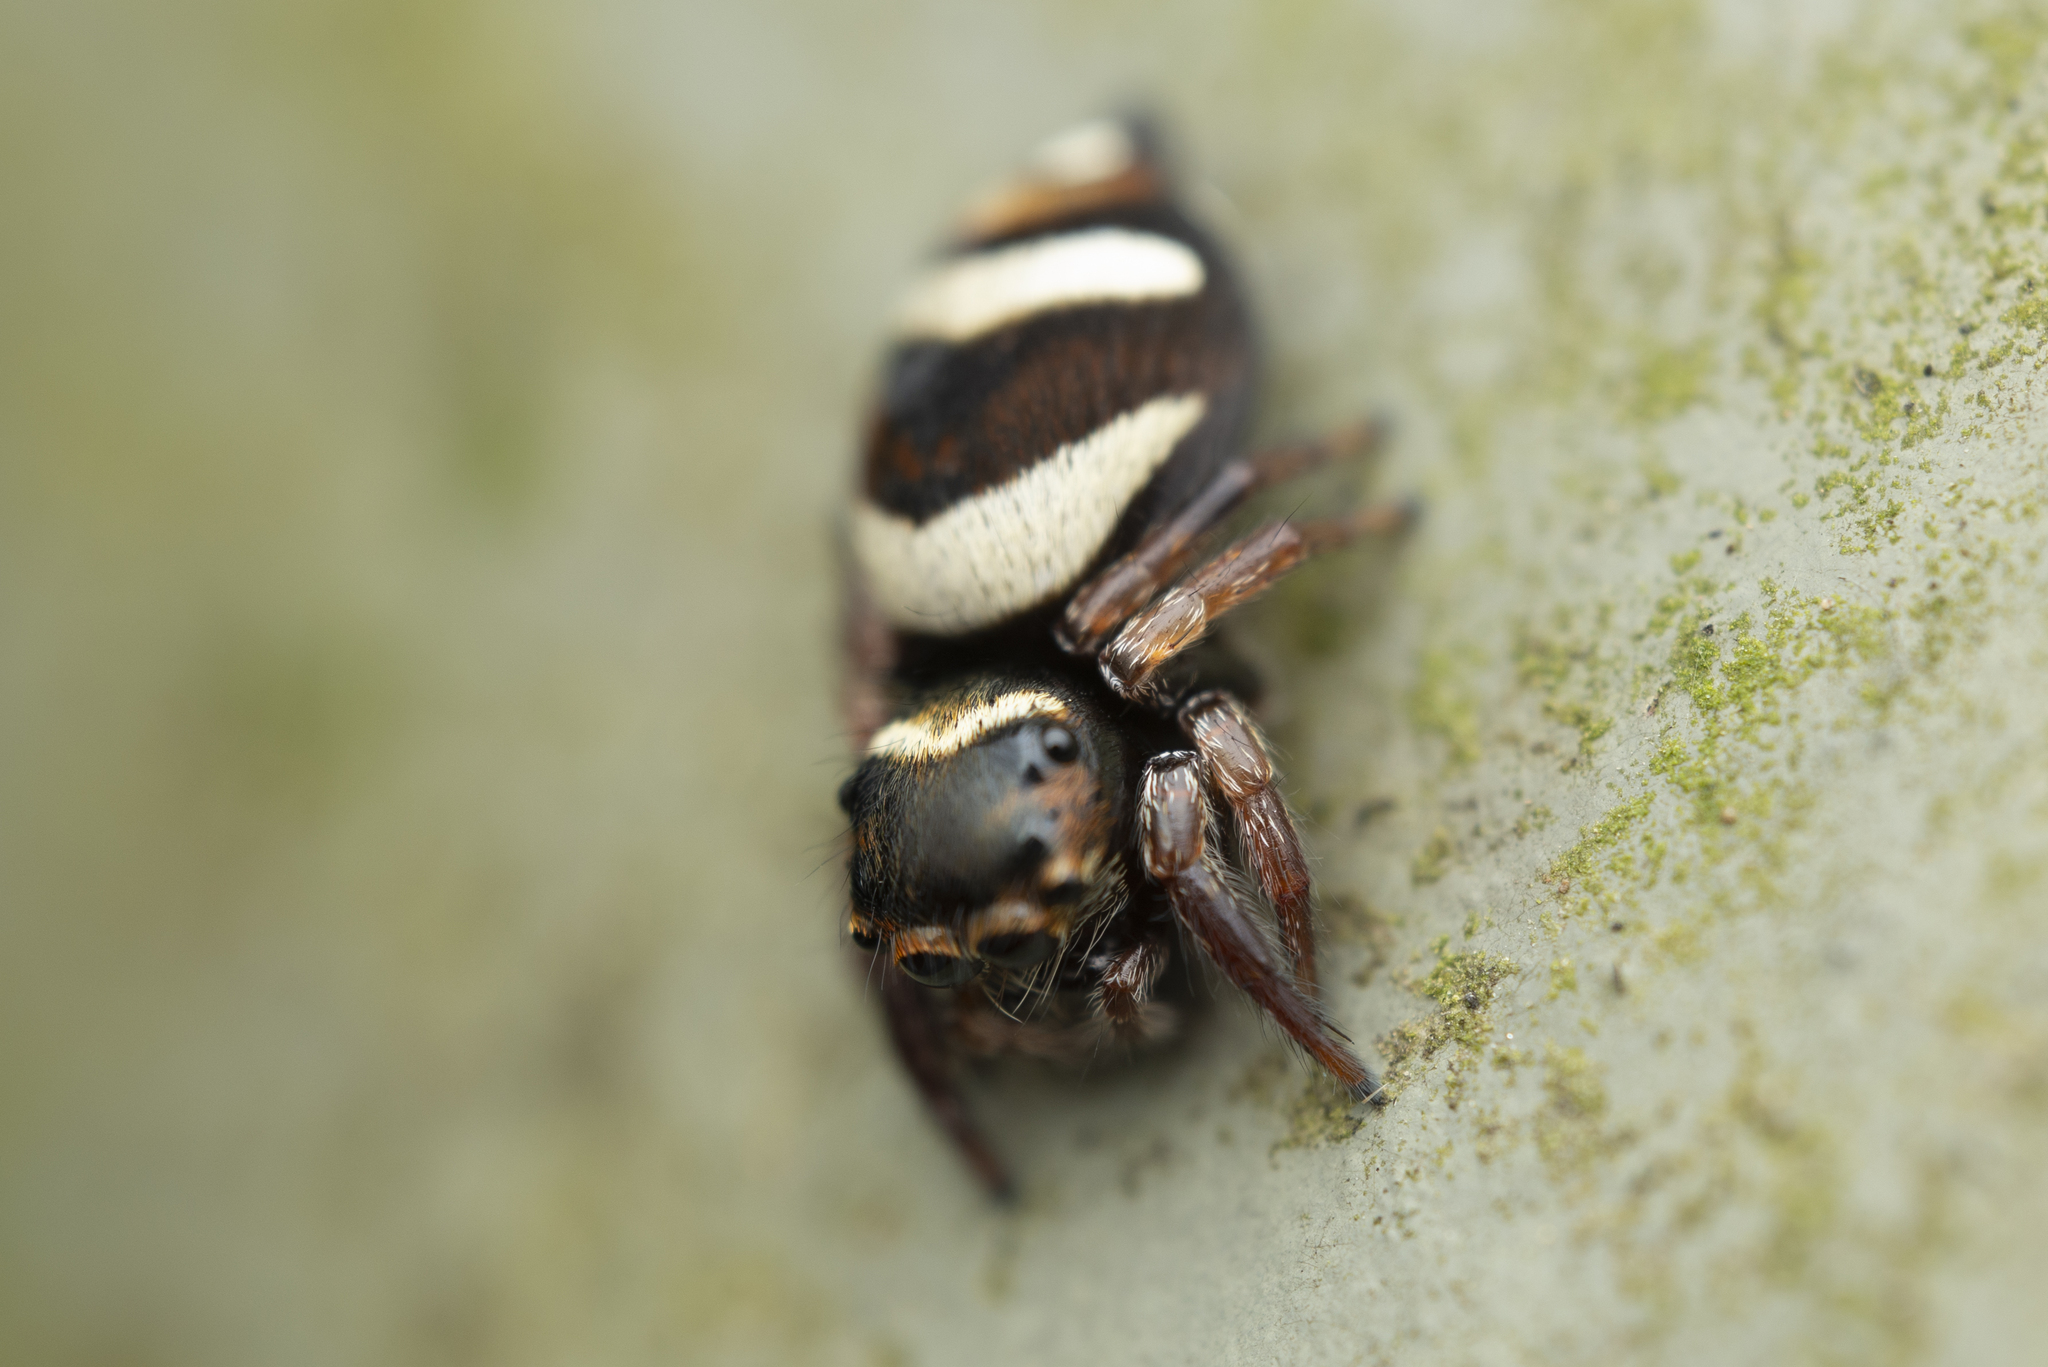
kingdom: Animalia
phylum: Arthropoda
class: Arachnida
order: Araneae
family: Salticidae
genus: Ptocasius
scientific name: Ptocasius strupifer
